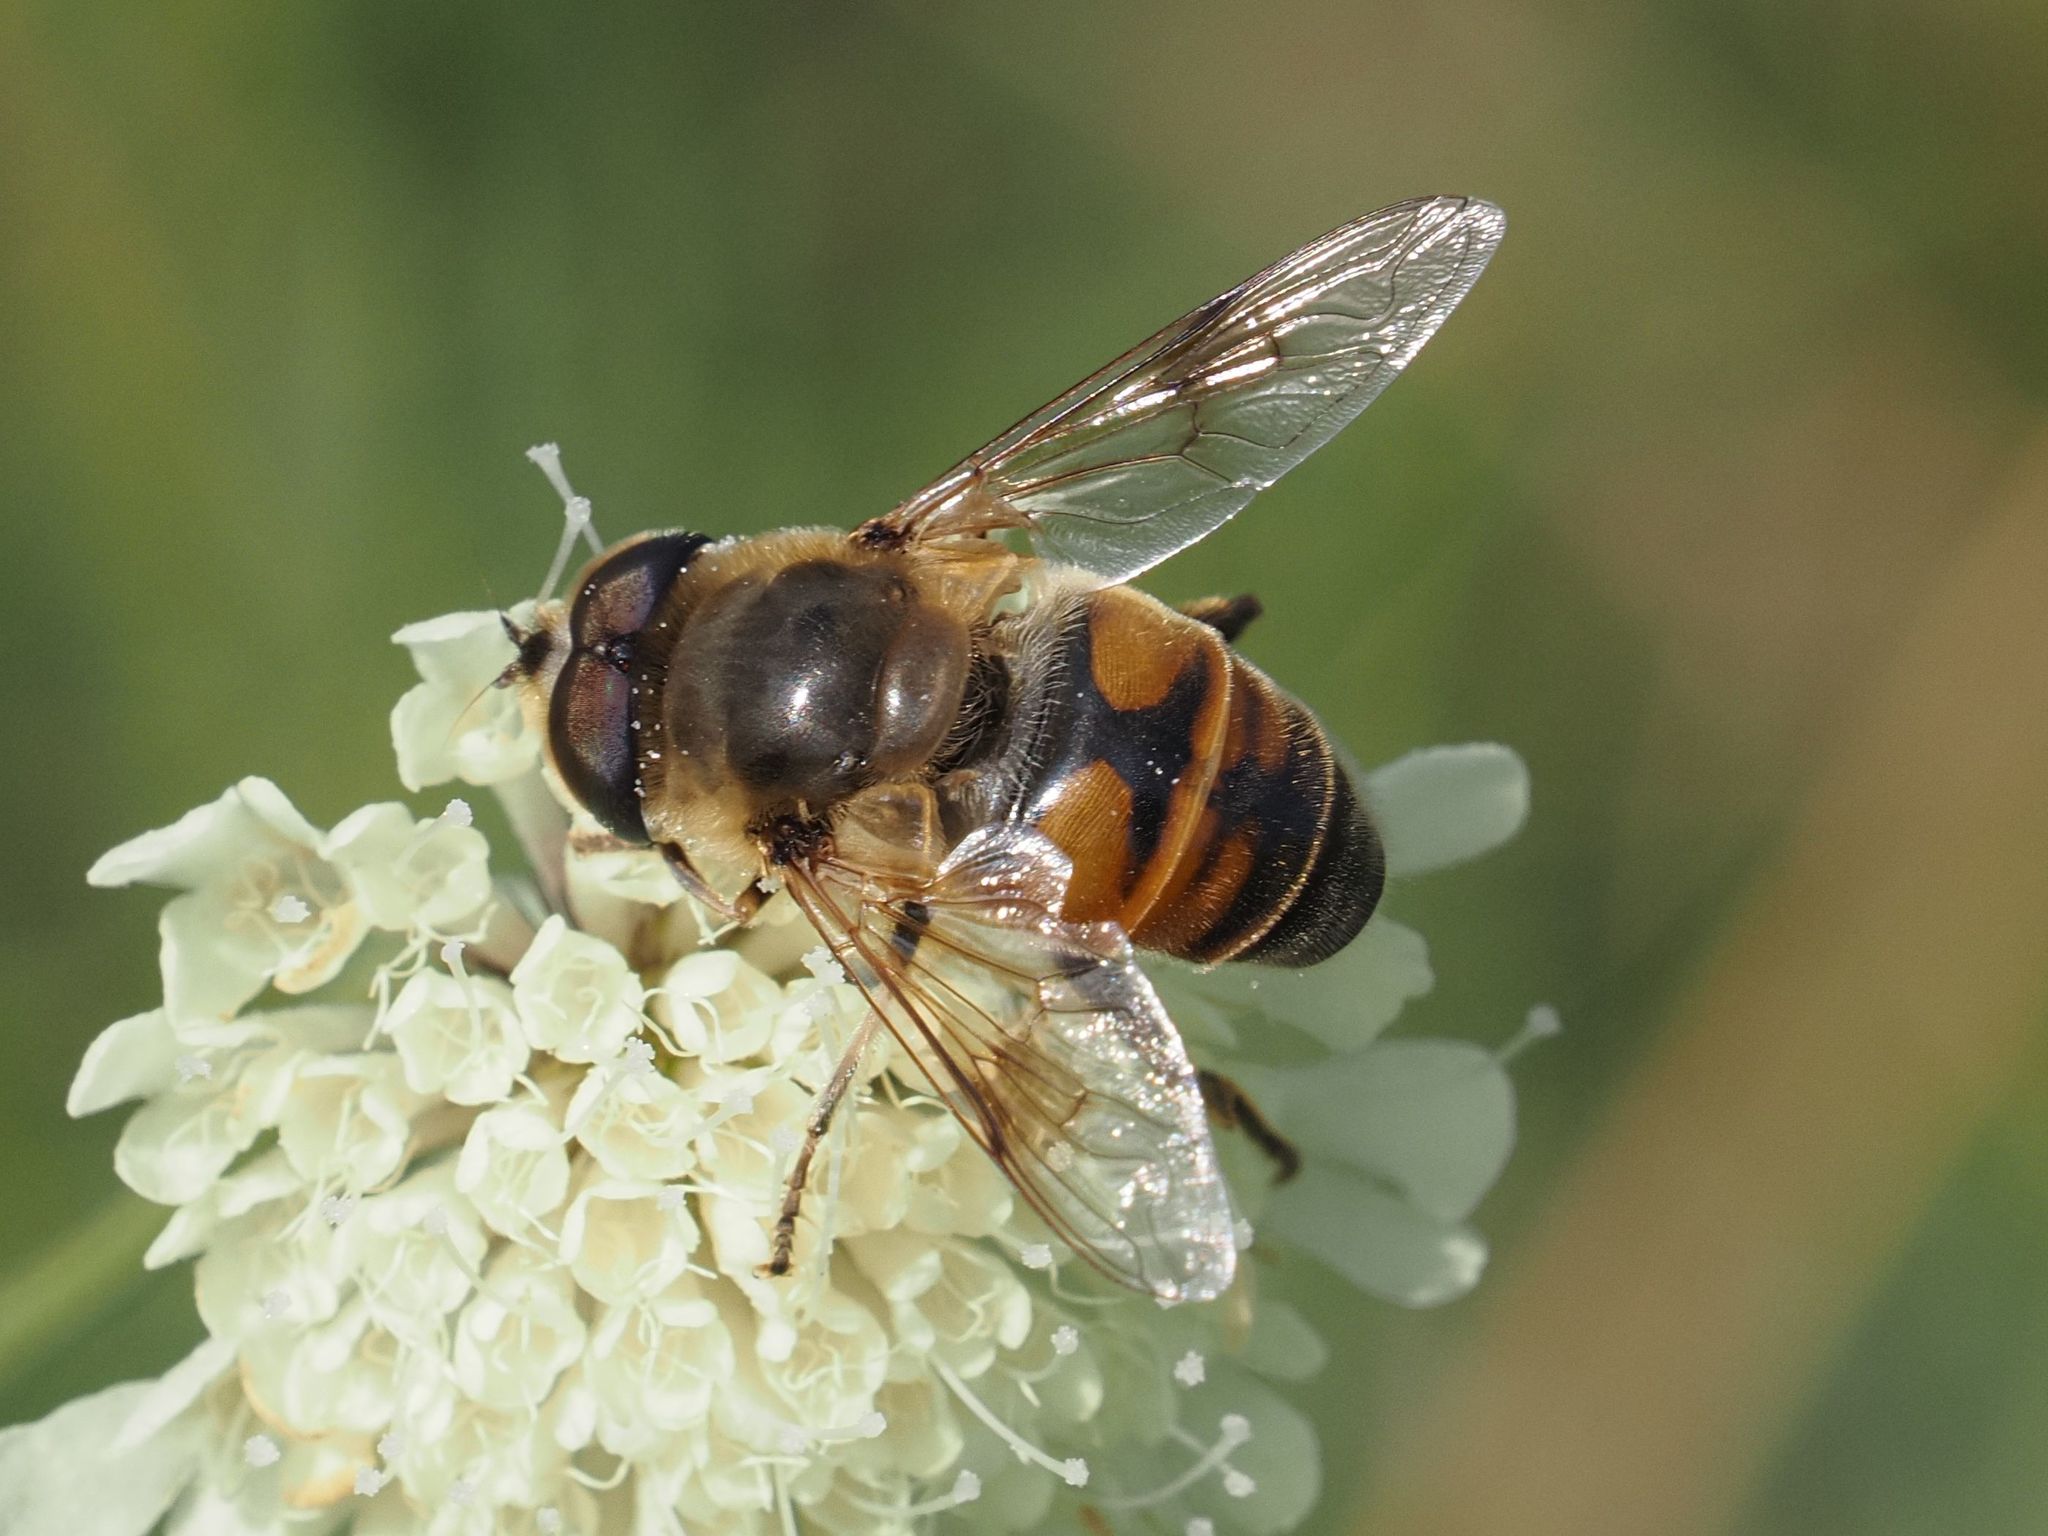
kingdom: Animalia
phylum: Arthropoda
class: Insecta
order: Diptera
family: Syrphidae
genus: Eristalis
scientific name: Eristalis tenax
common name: Drone fly
